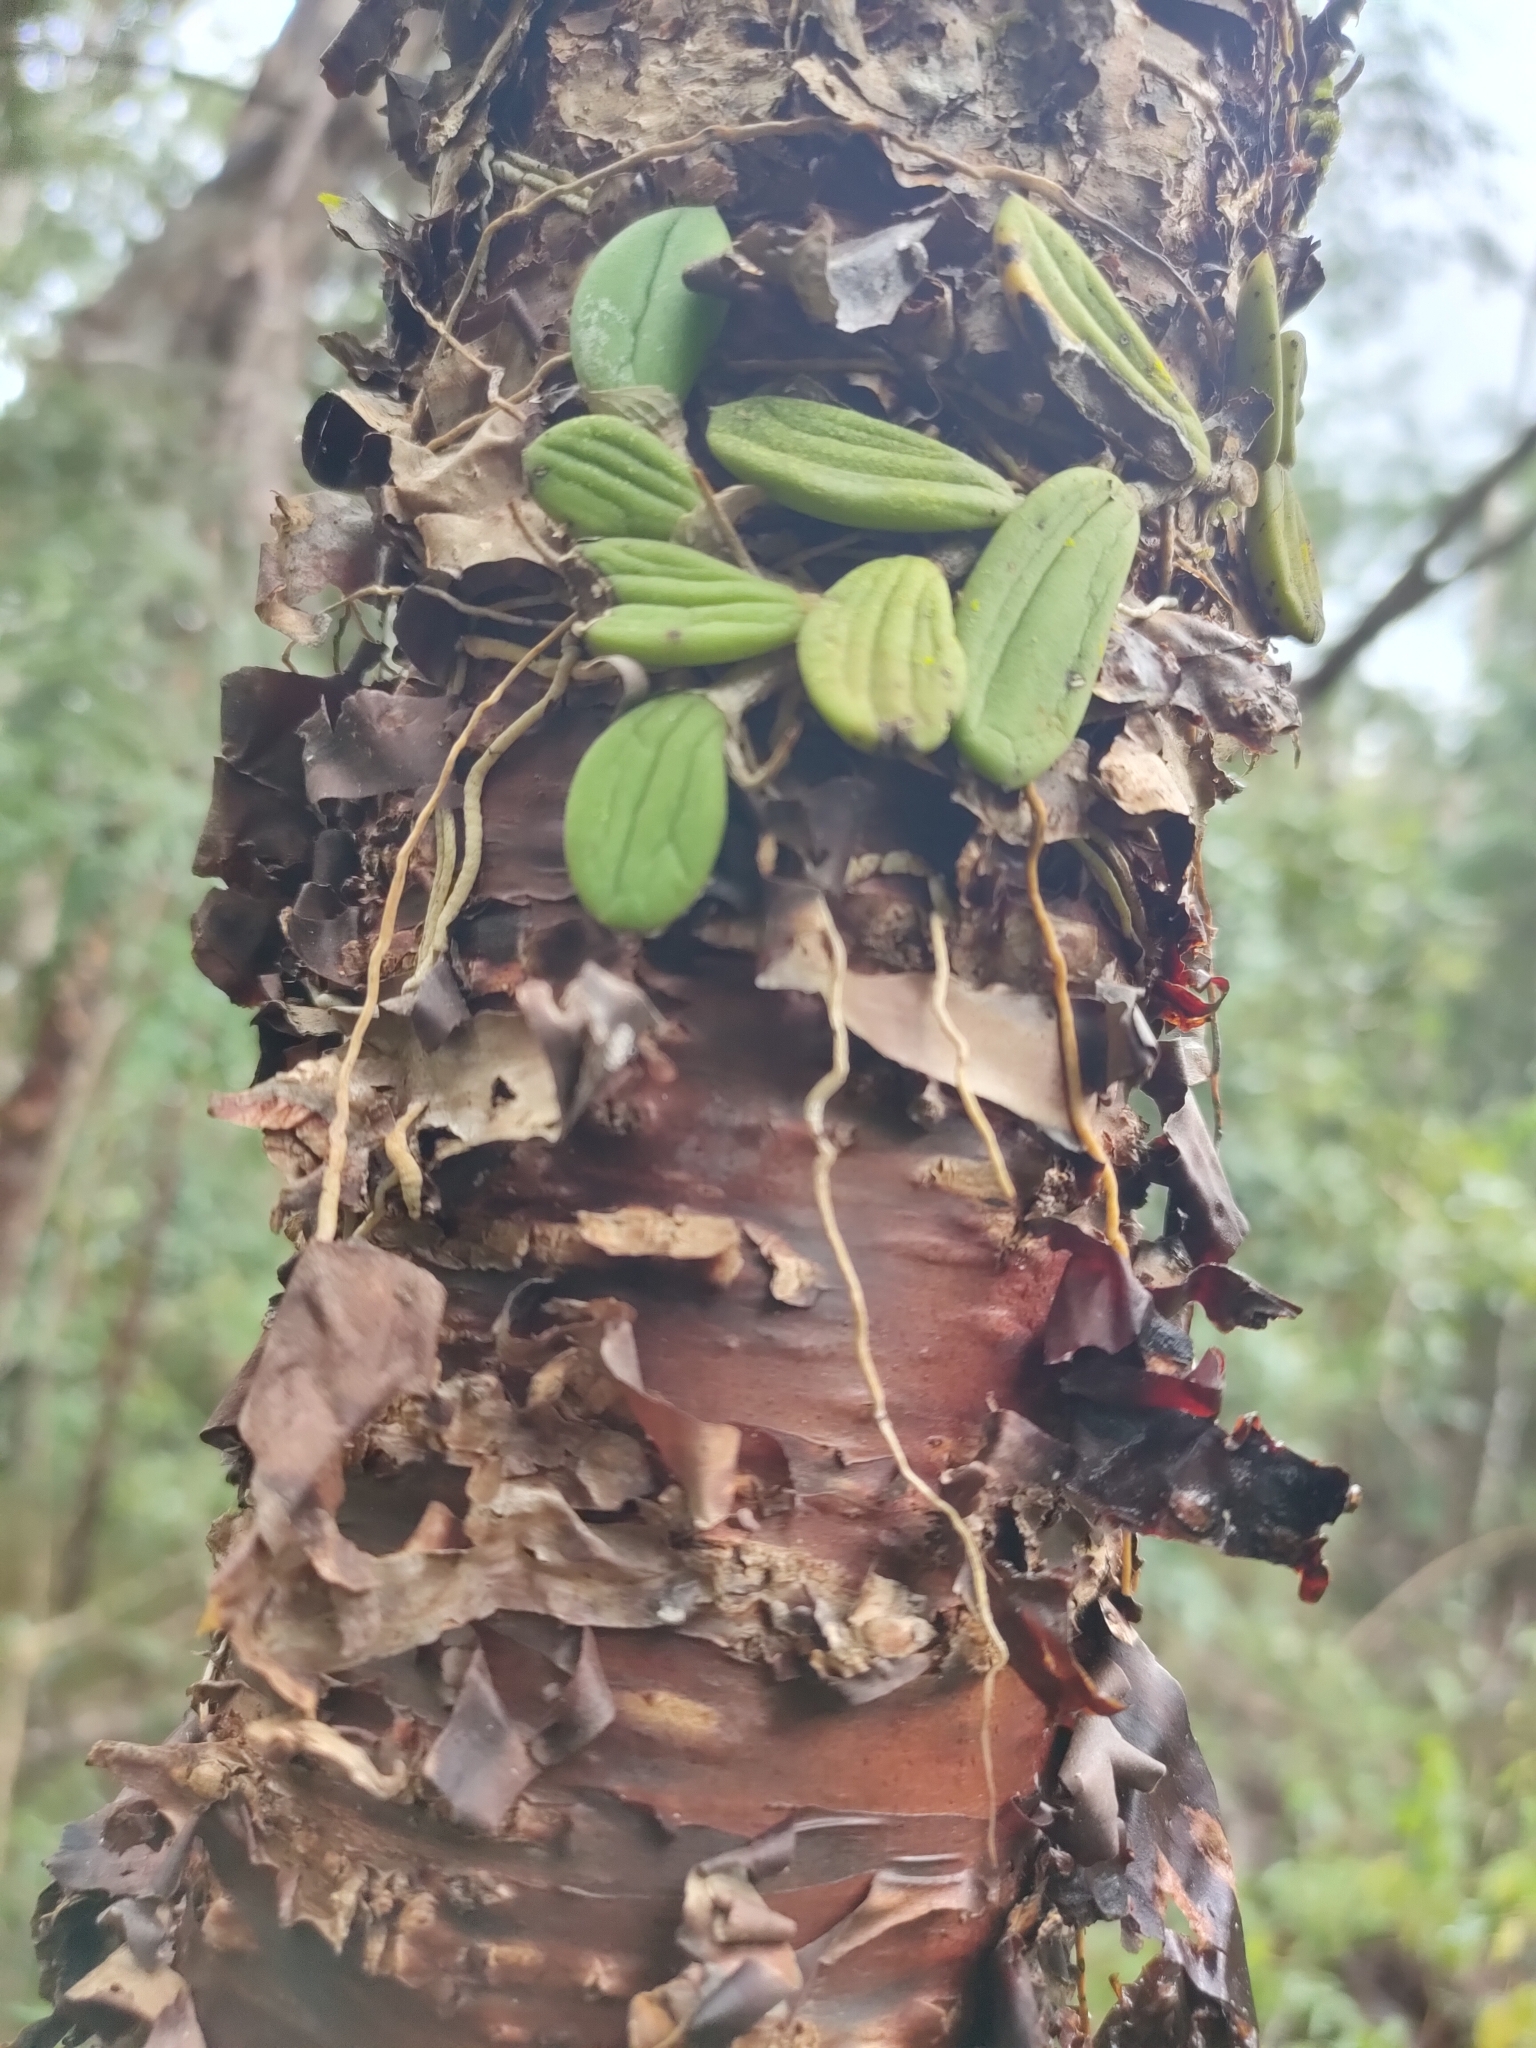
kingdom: Plantae
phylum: Tracheophyta
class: Pinopsida
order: Pinales
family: Araucariaceae
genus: Araucaria
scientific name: Araucaria cunninghamii
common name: Colonial pine
